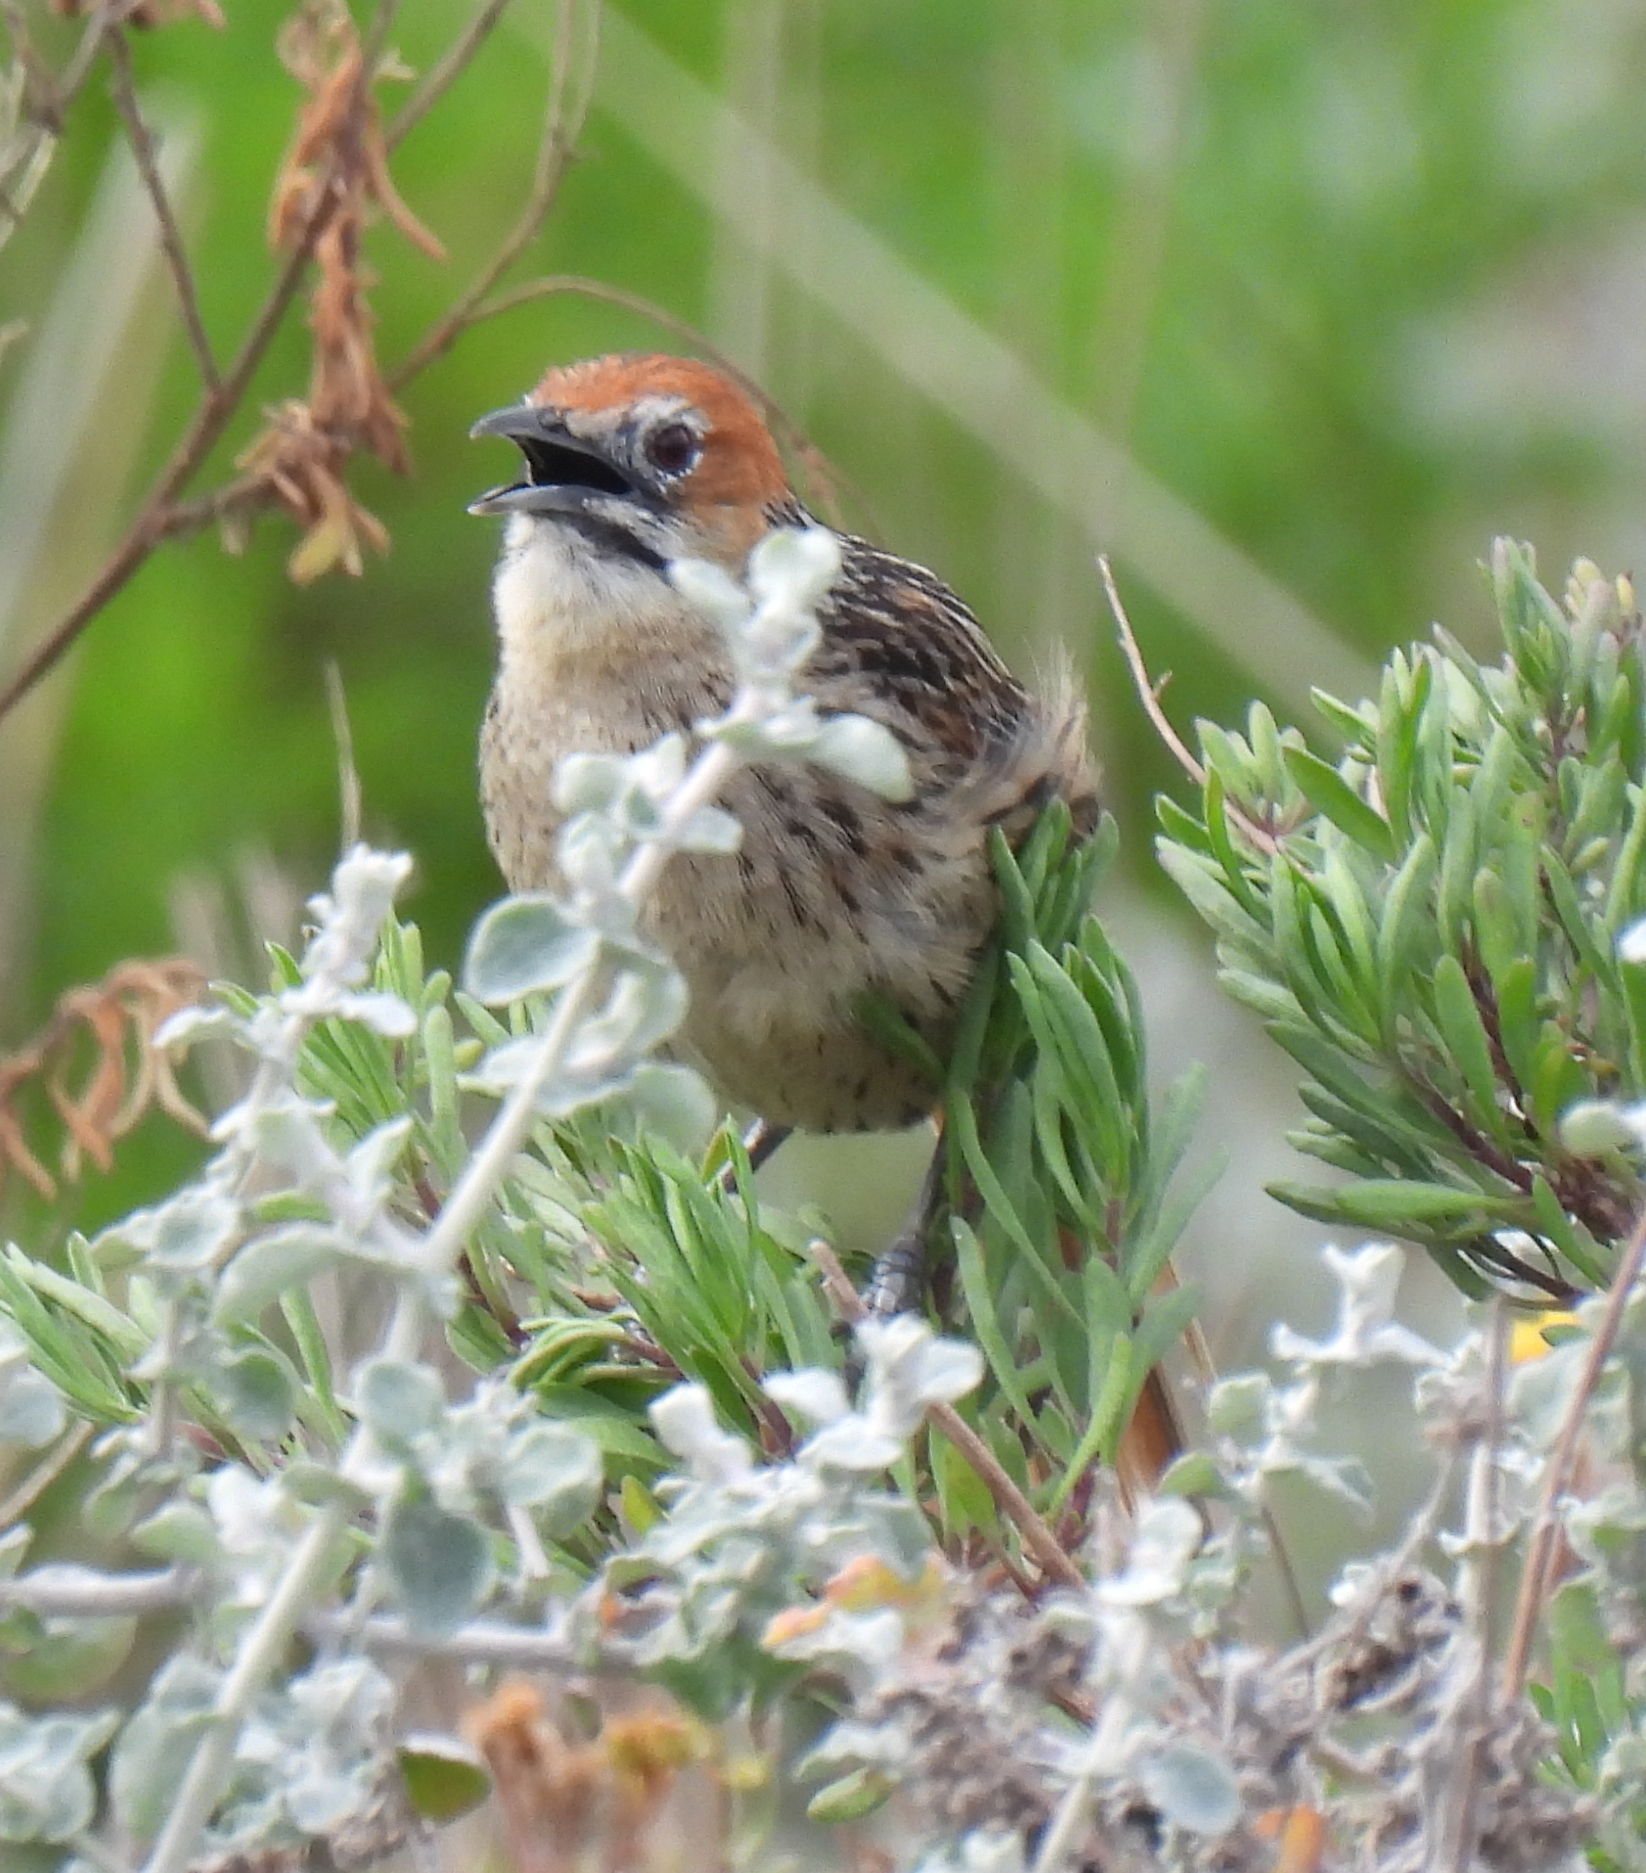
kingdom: Animalia
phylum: Chordata
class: Aves
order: Passeriformes
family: Macrosphenidae
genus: Sphenoeacus
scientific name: Sphenoeacus afer
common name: Cape grassbird
